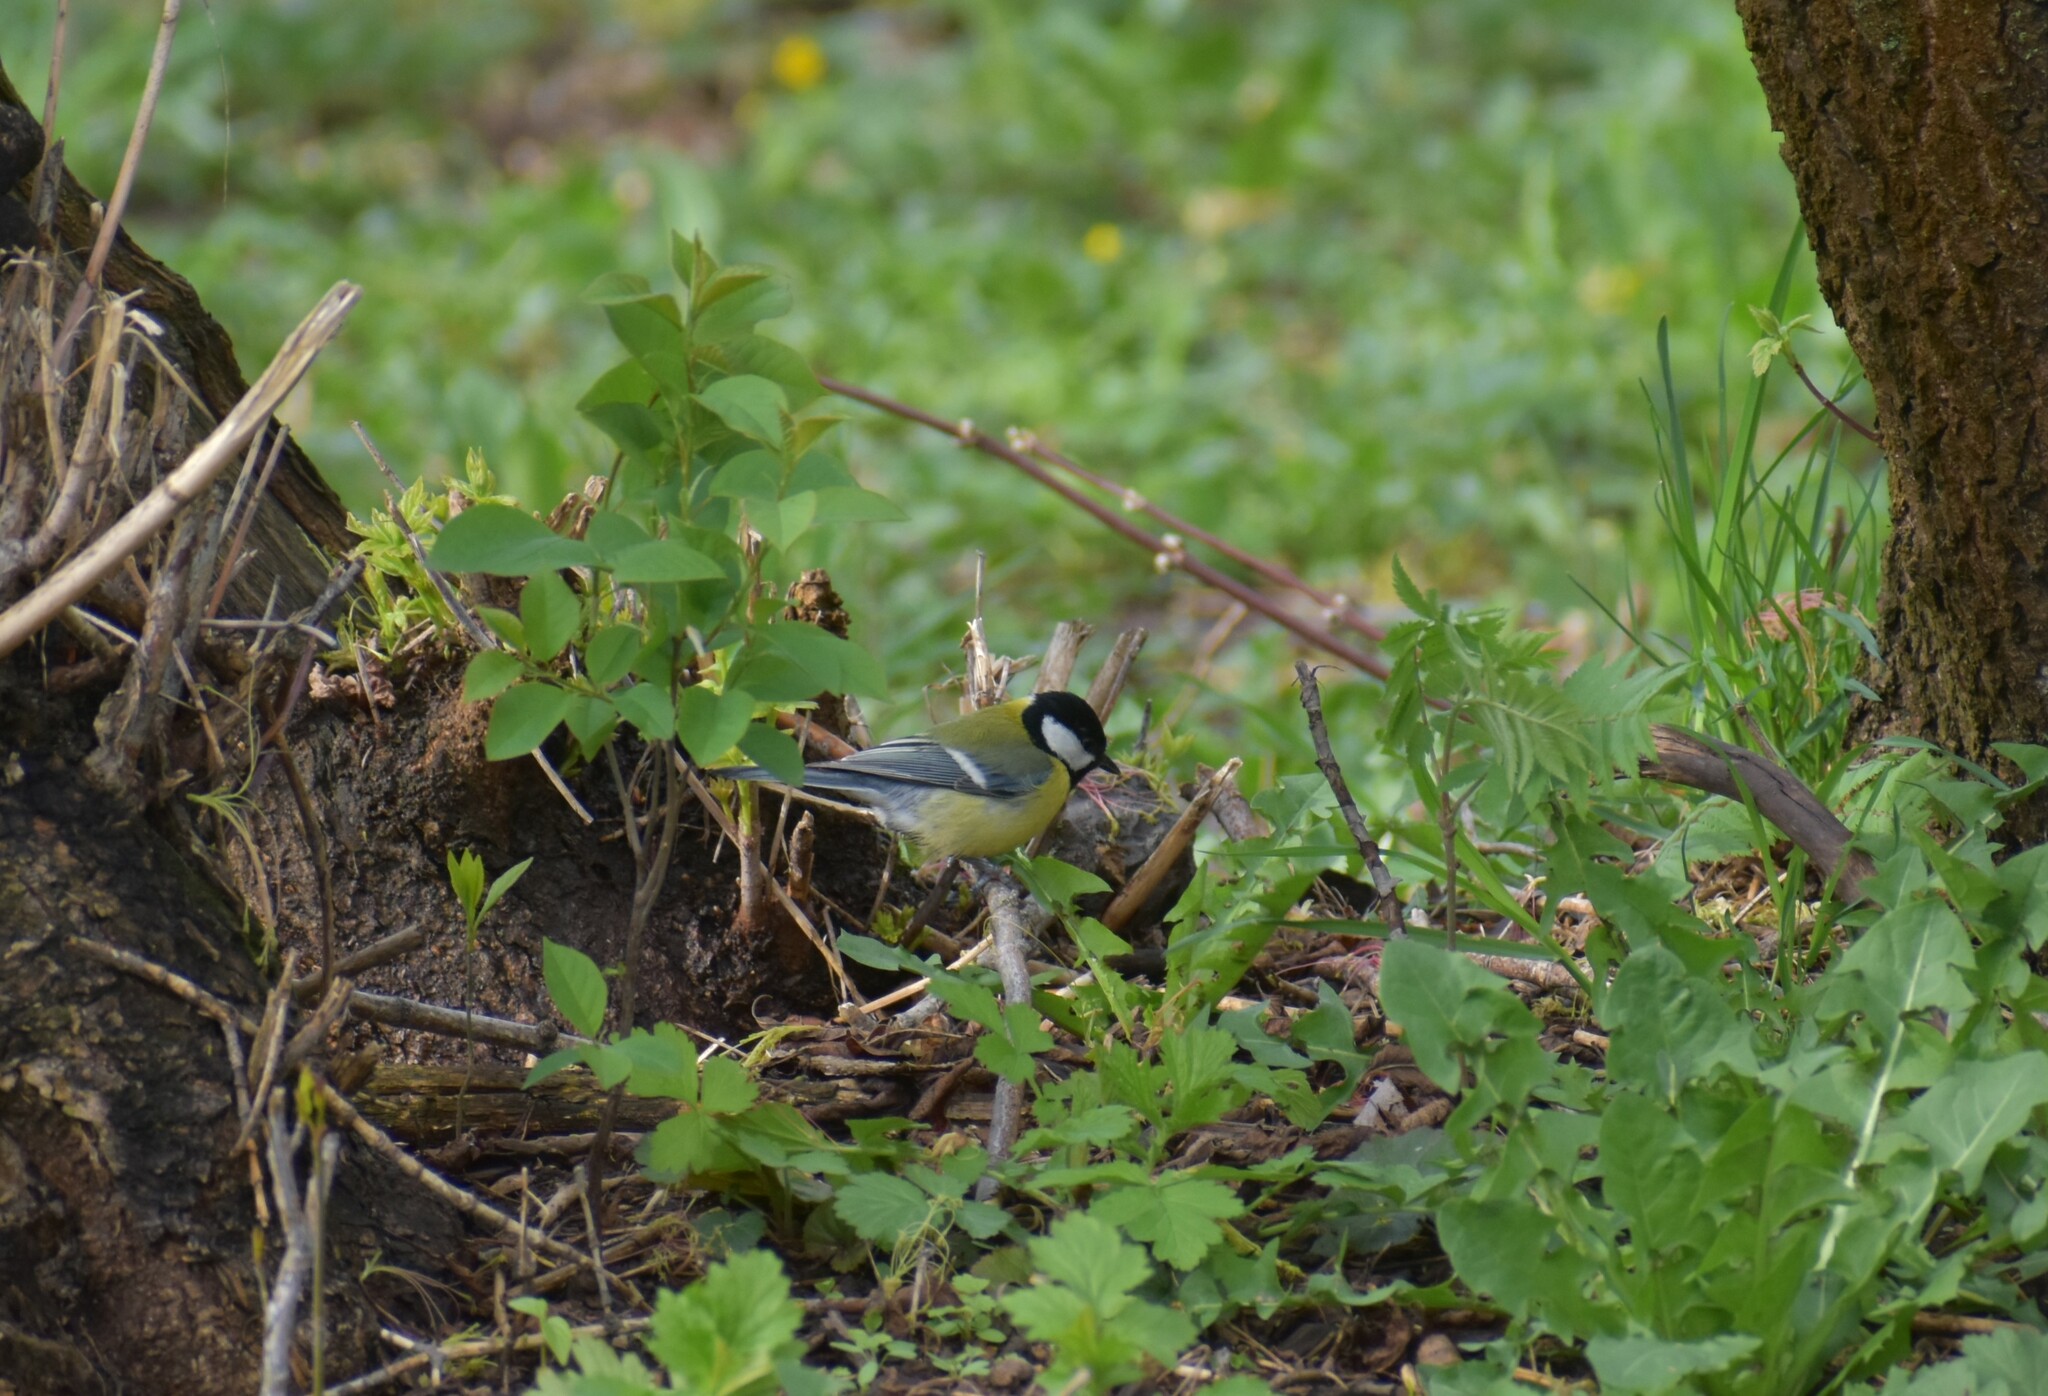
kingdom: Animalia
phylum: Chordata
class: Aves
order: Passeriformes
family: Paridae
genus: Parus
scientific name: Parus major
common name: Great tit
